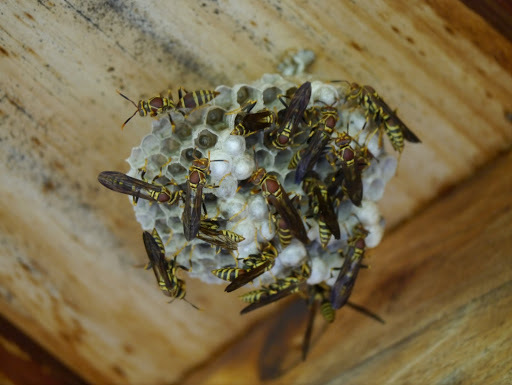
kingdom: Animalia
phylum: Arthropoda
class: Insecta
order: Hymenoptera
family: Eumenidae
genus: Polistes
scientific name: Polistes exclamans
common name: Paper wasp
